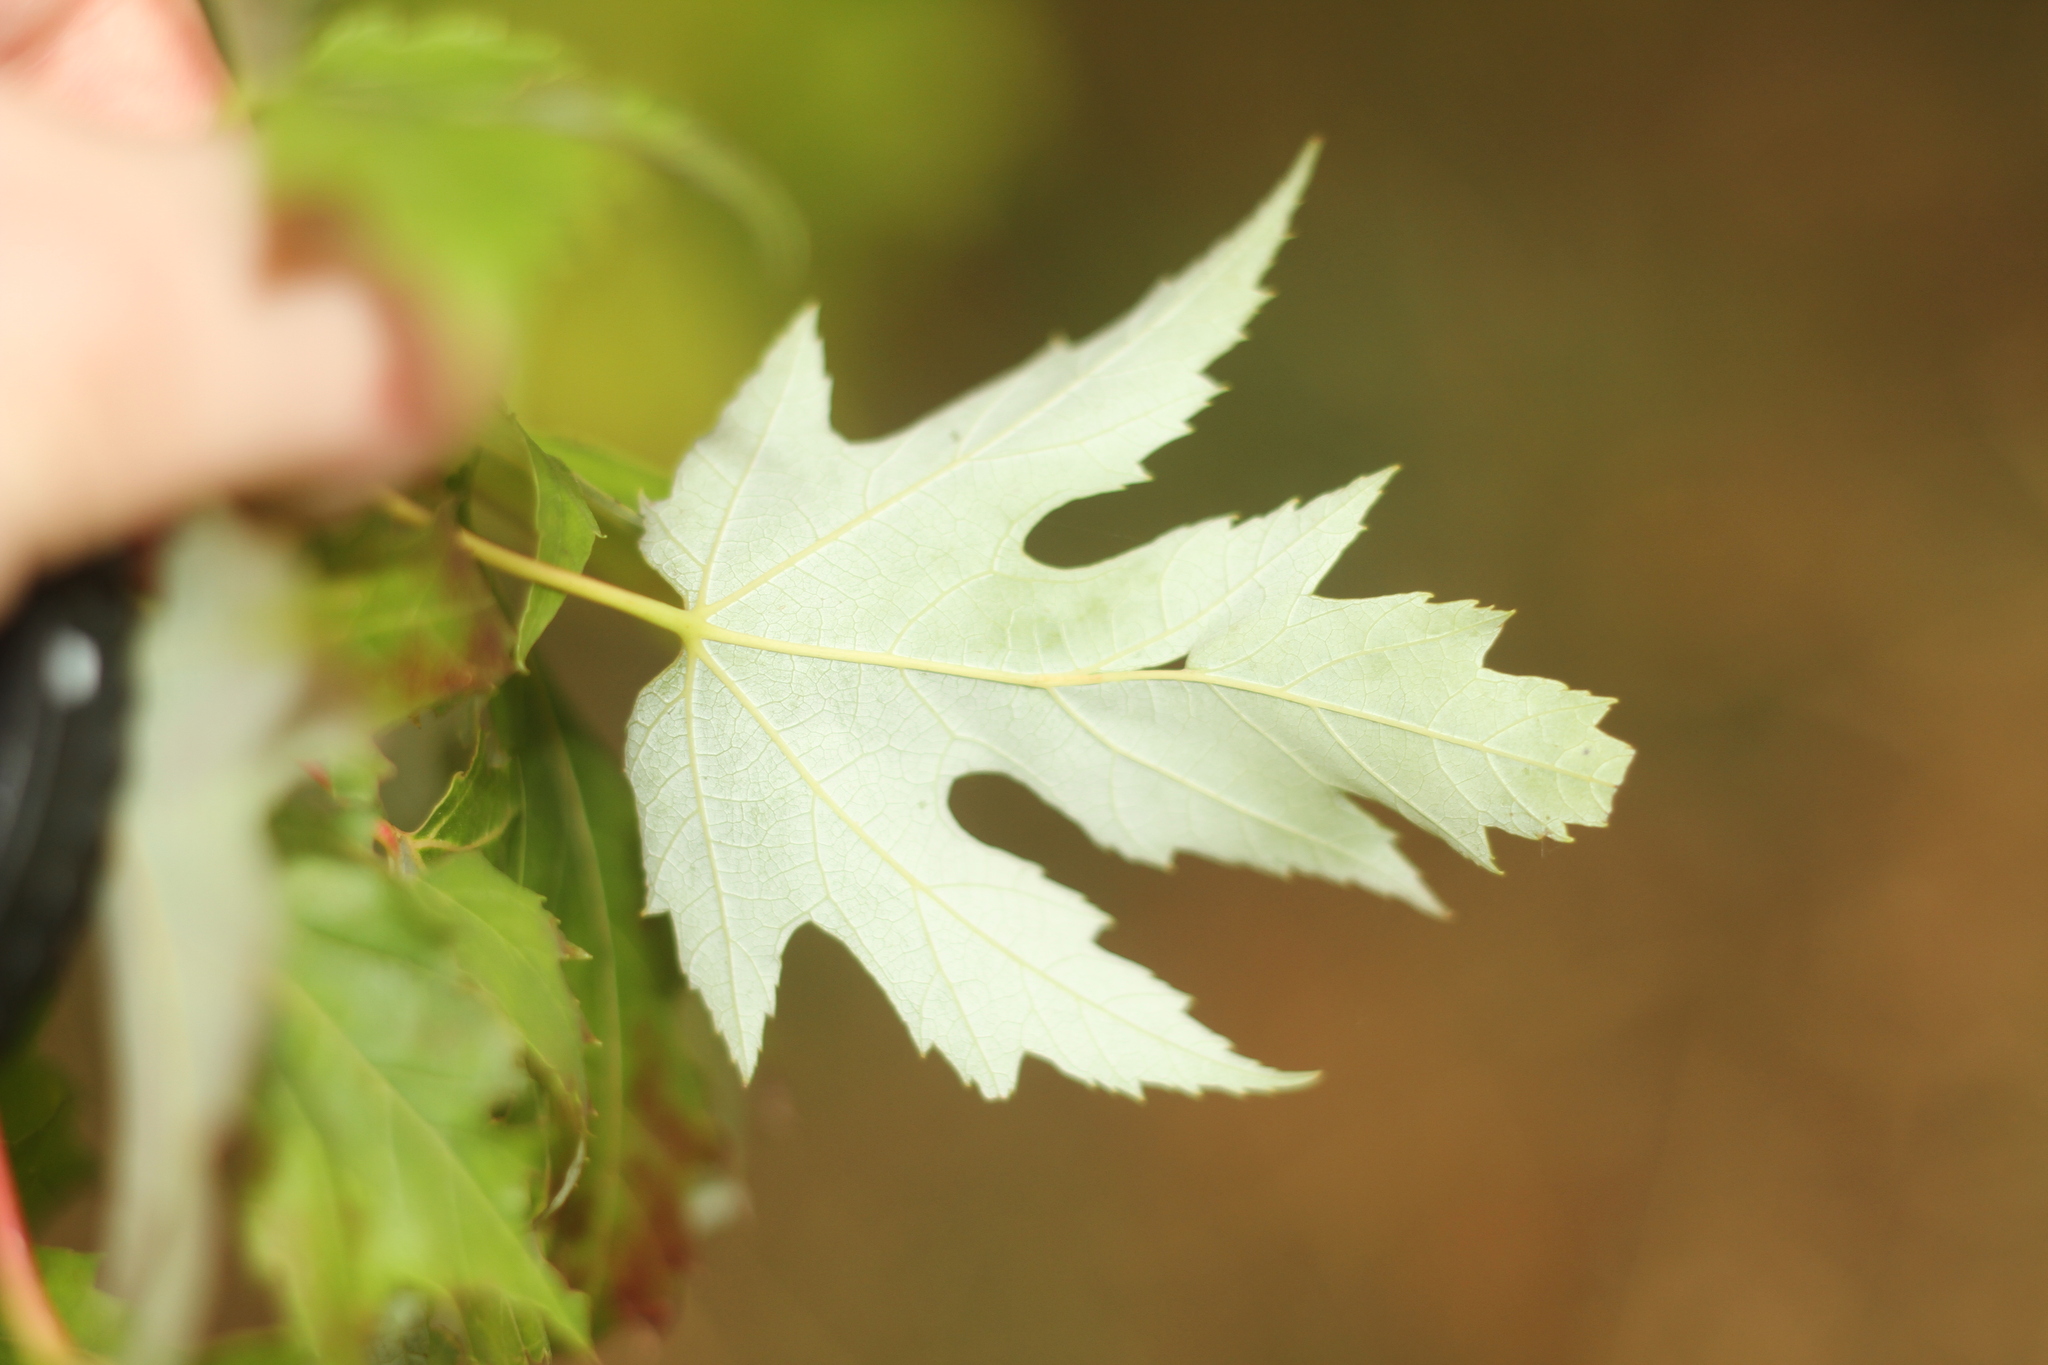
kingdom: Plantae
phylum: Tracheophyta
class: Magnoliopsida
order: Sapindales
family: Sapindaceae
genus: Acer
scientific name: Acer saccharinum
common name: Silver maple
